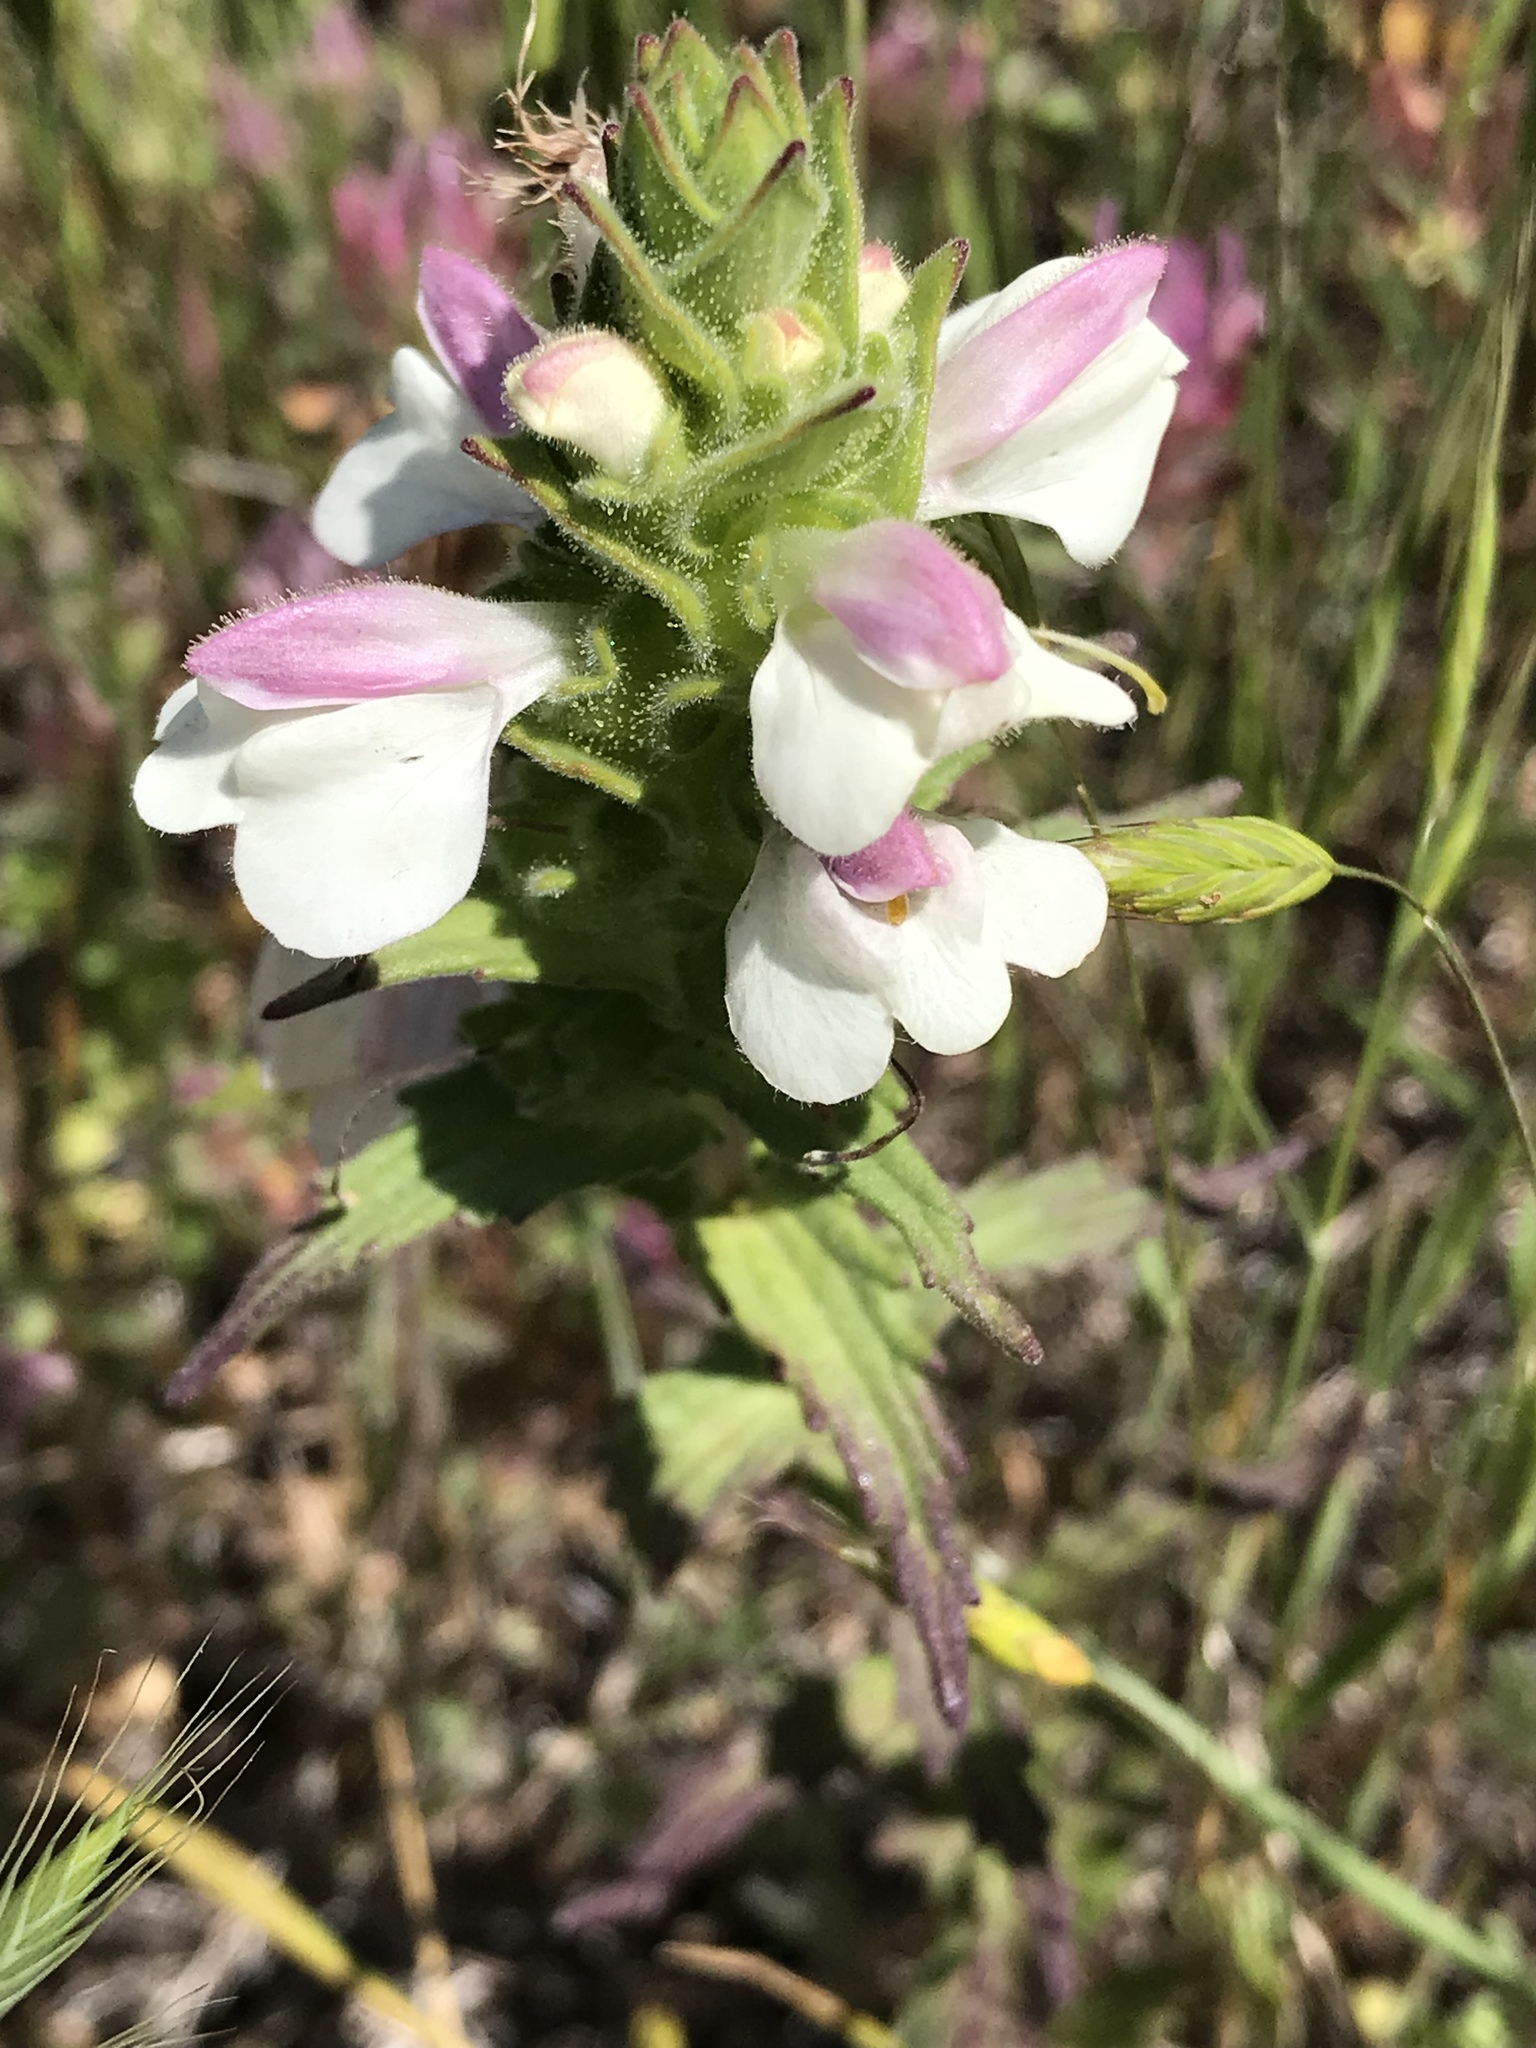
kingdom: Plantae
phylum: Tracheophyta
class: Magnoliopsida
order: Lamiales
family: Orobanchaceae
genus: Bellardia
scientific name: Bellardia trixago
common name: Mediterranean lineseed
